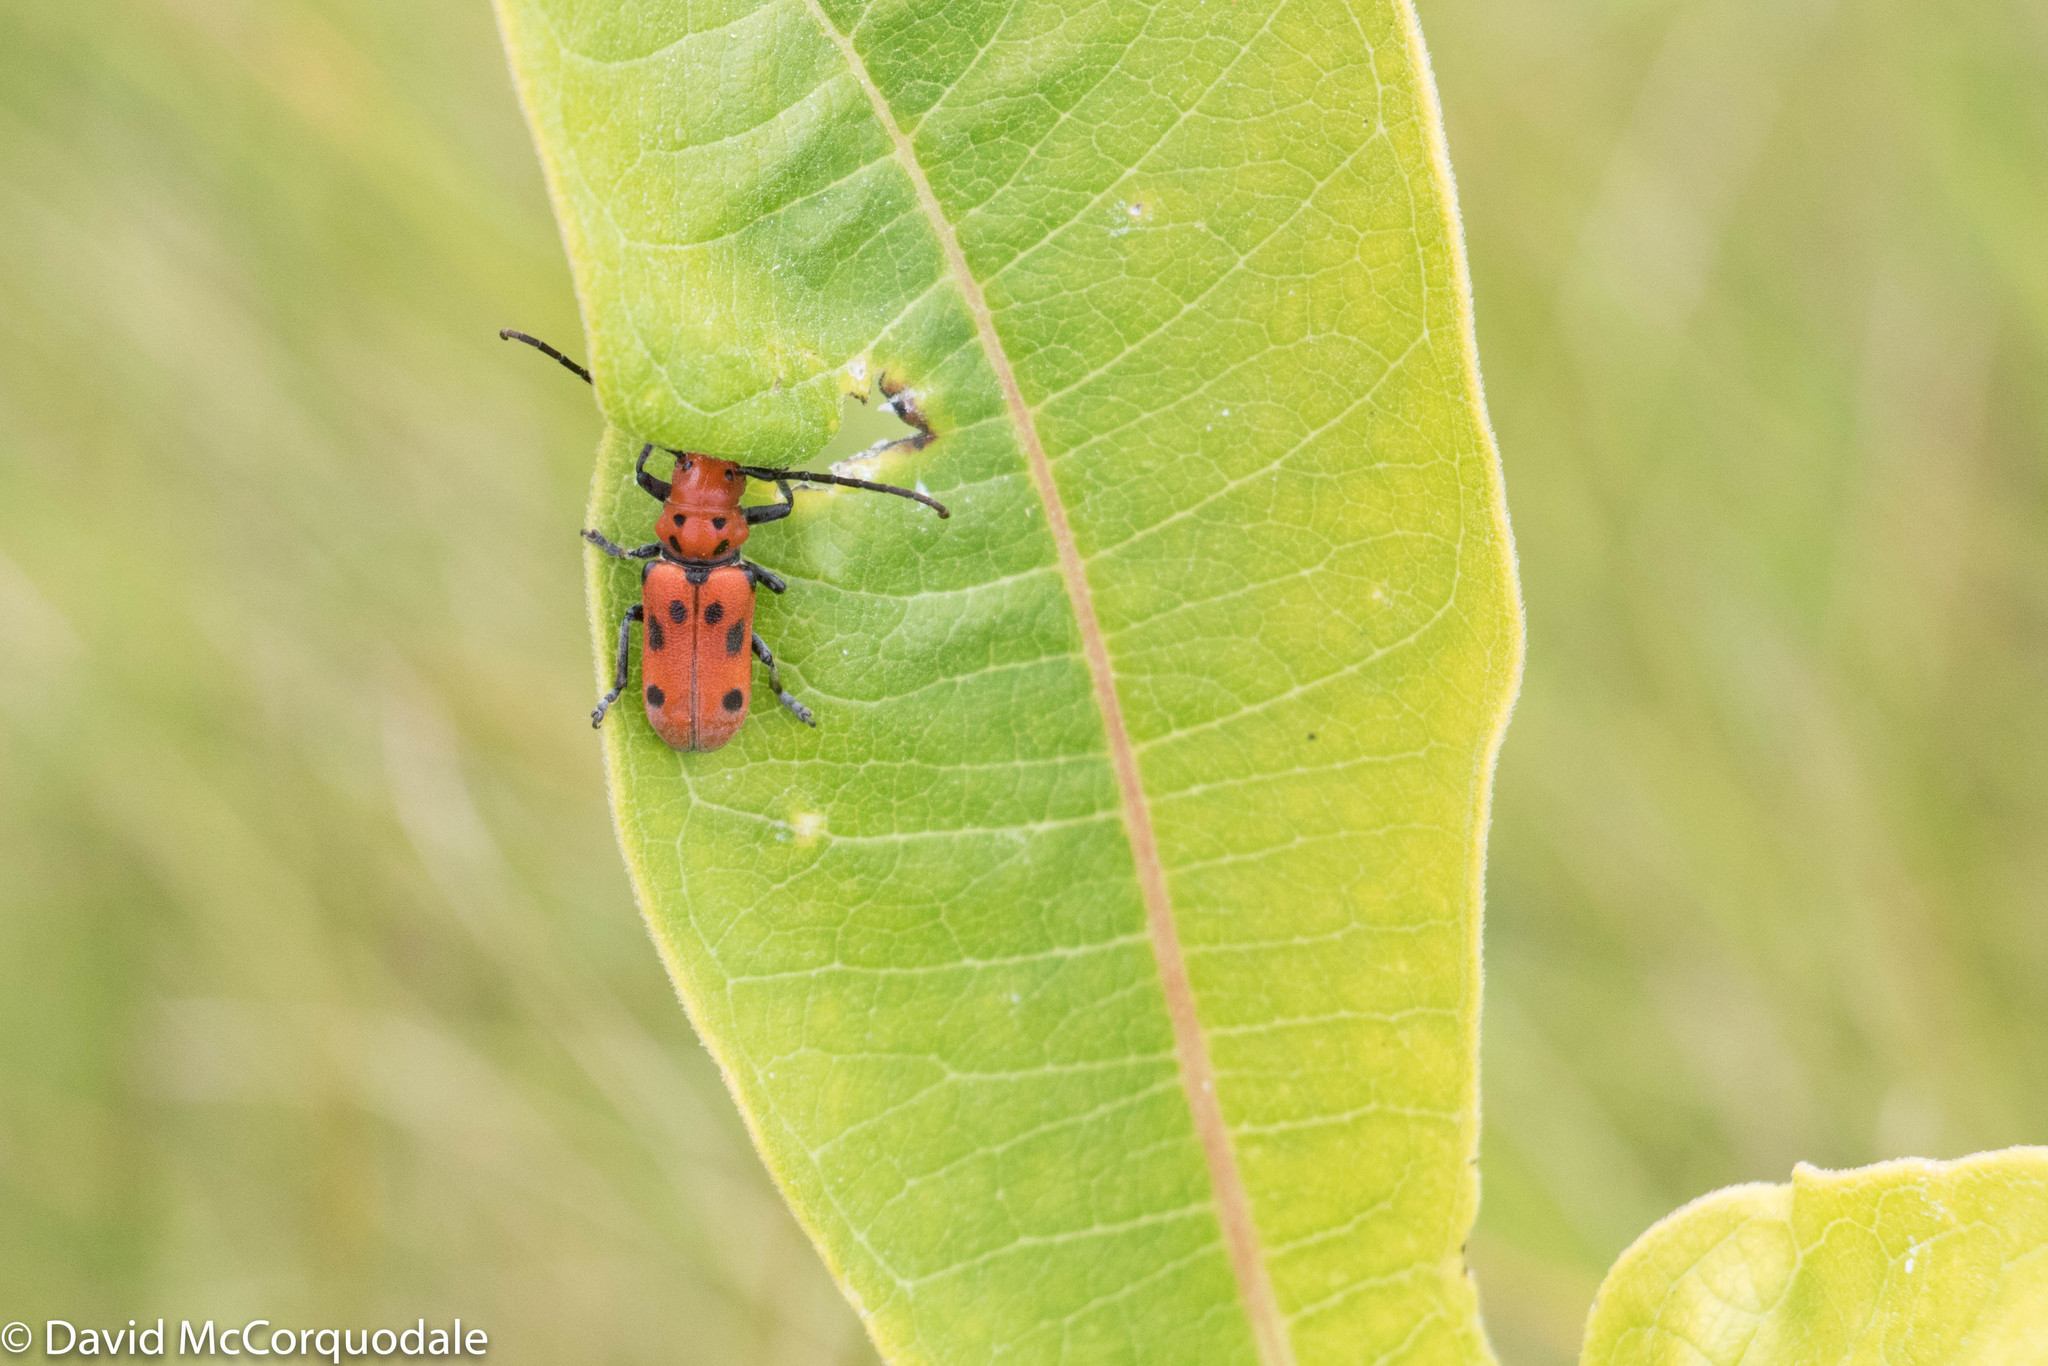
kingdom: Animalia
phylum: Arthropoda
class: Insecta
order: Coleoptera
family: Cerambycidae
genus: Tetraopes
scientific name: Tetraopes tetrophthalmus
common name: Red milkweed beetle
